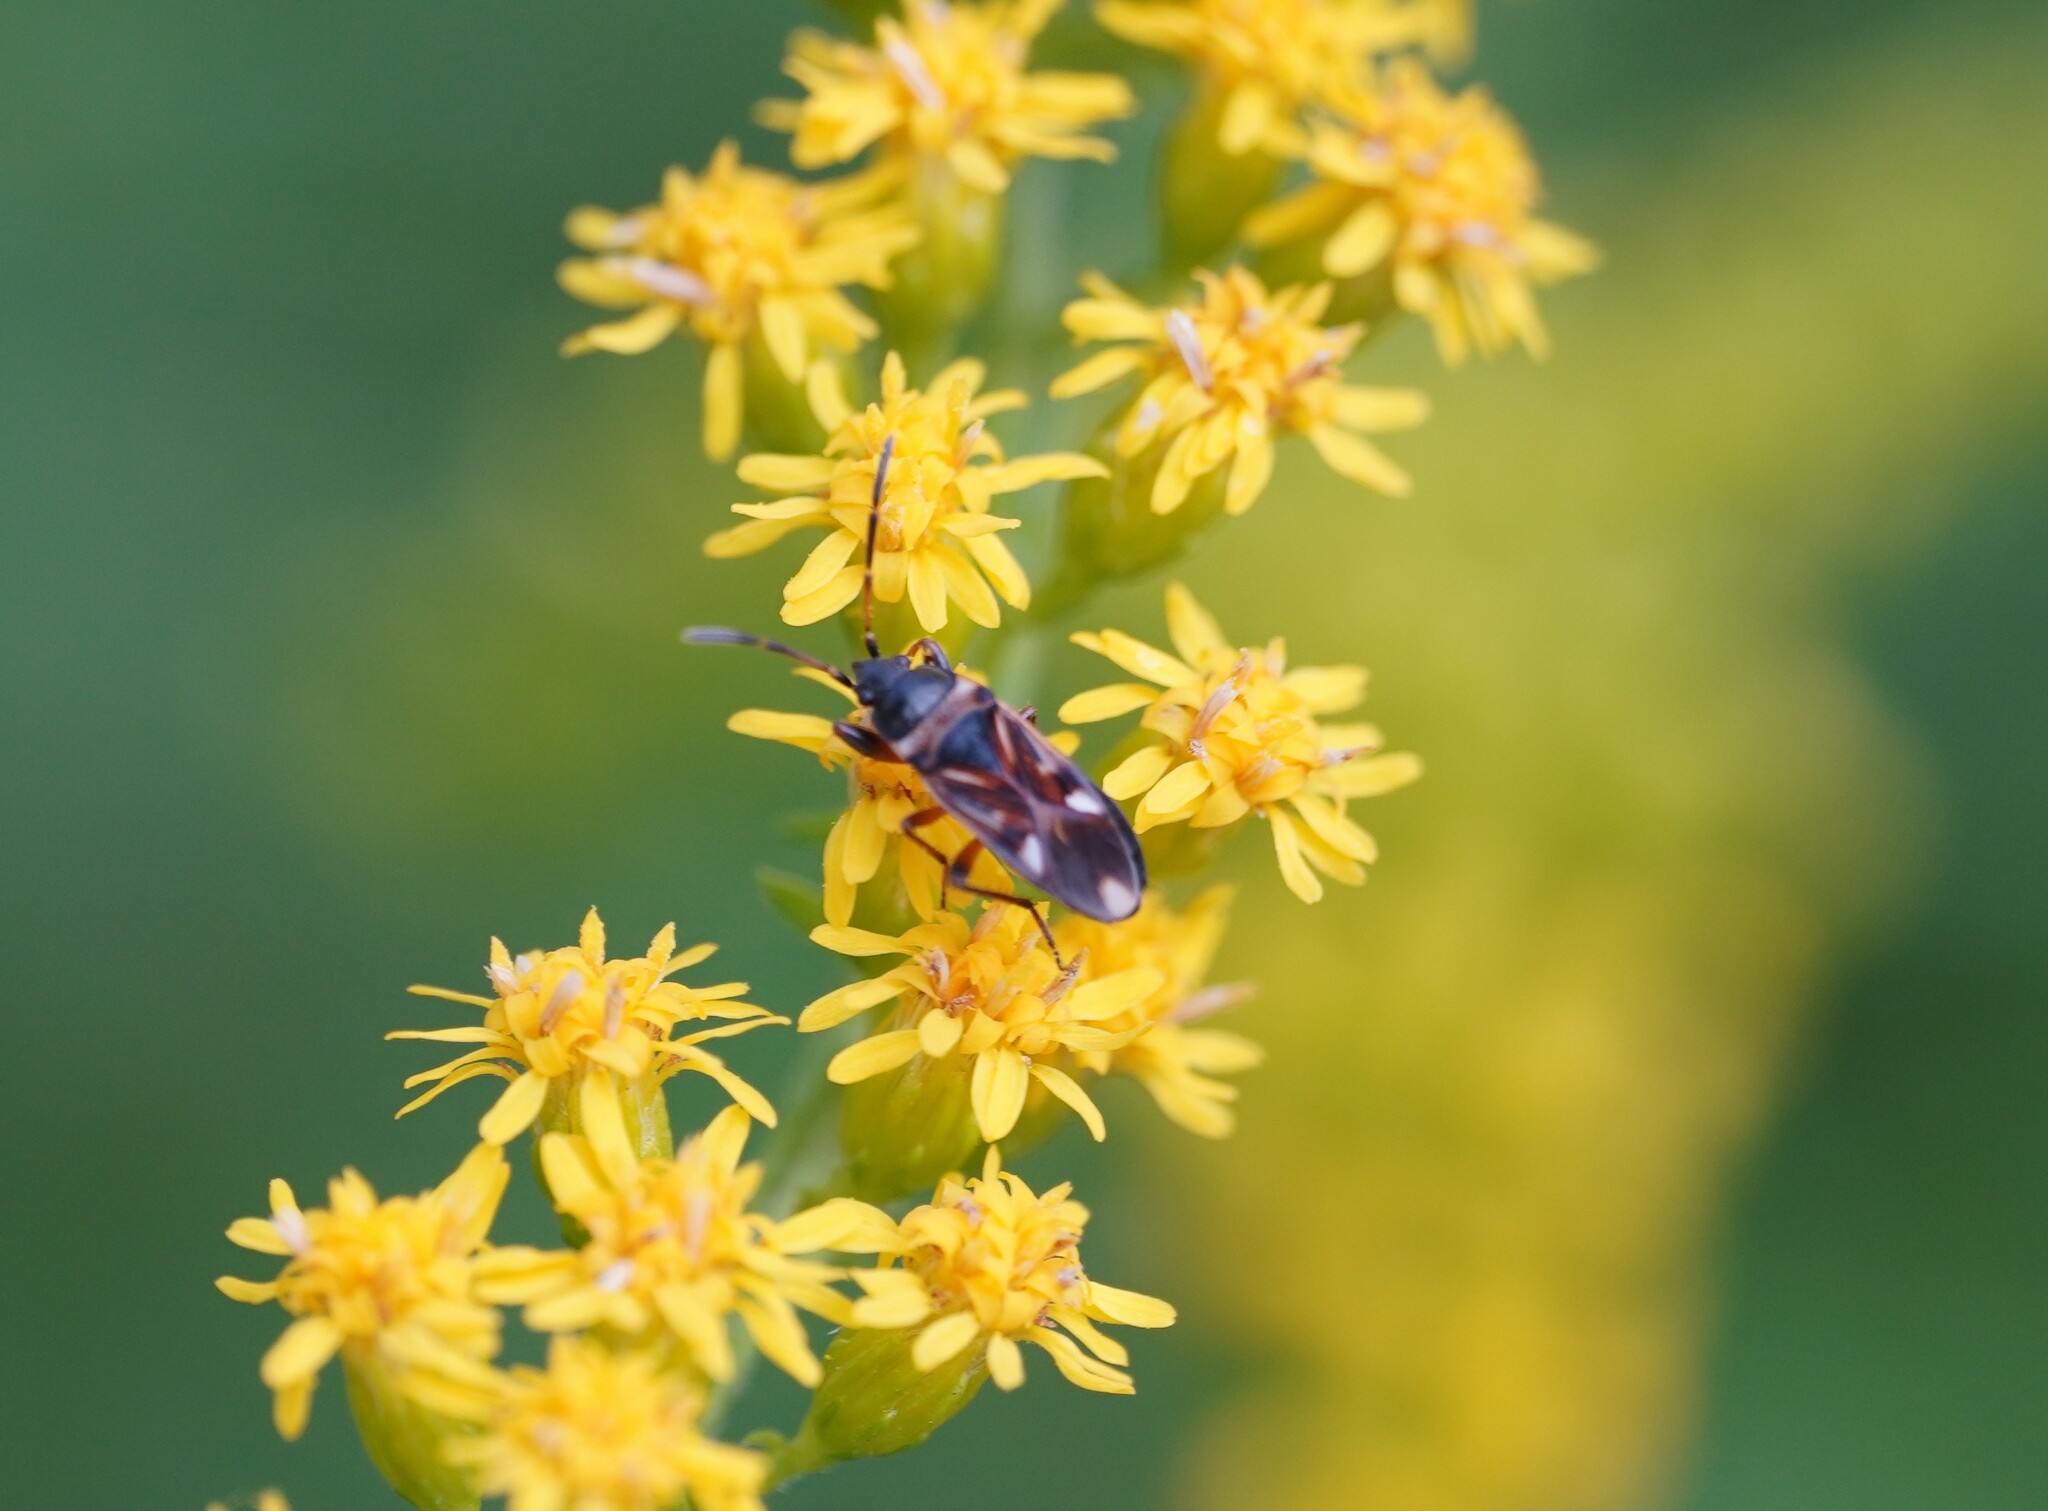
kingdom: Animalia
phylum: Arthropoda
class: Insecta
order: Hemiptera
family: Rhyparochromidae
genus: Raglius
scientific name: Raglius alboacuminatus
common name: Dirt-colored seed bug
